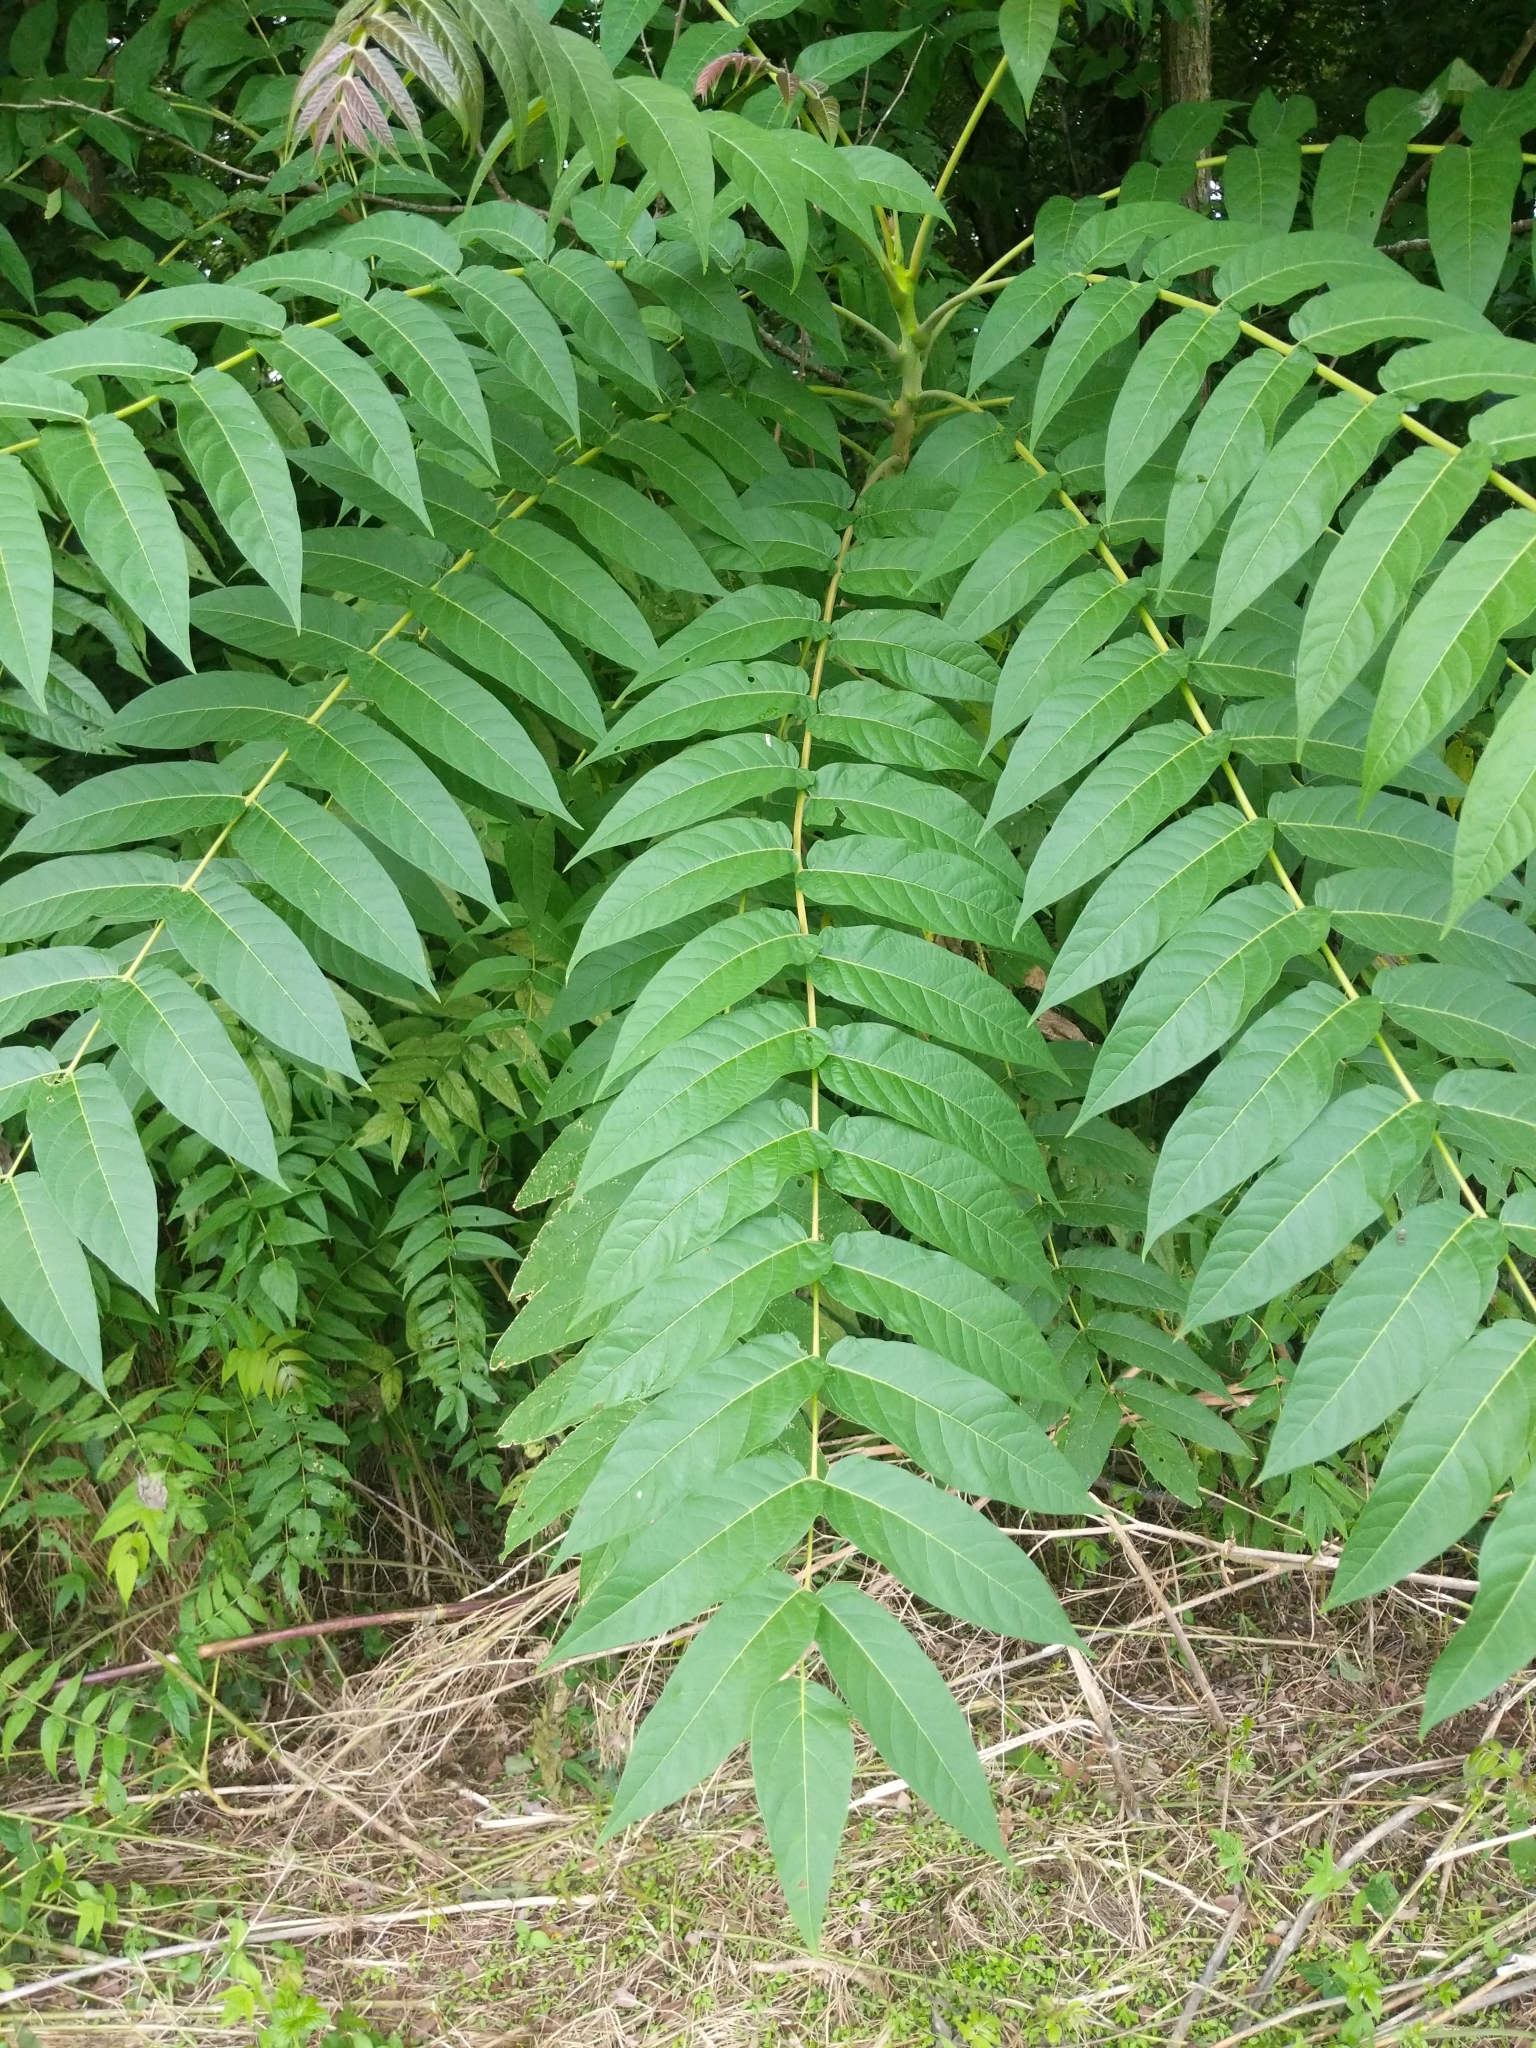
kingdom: Plantae
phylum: Tracheophyta
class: Magnoliopsida
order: Sapindales
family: Simaroubaceae
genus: Ailanthus
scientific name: Ailanthus altissima
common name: Tree-of-heaven
